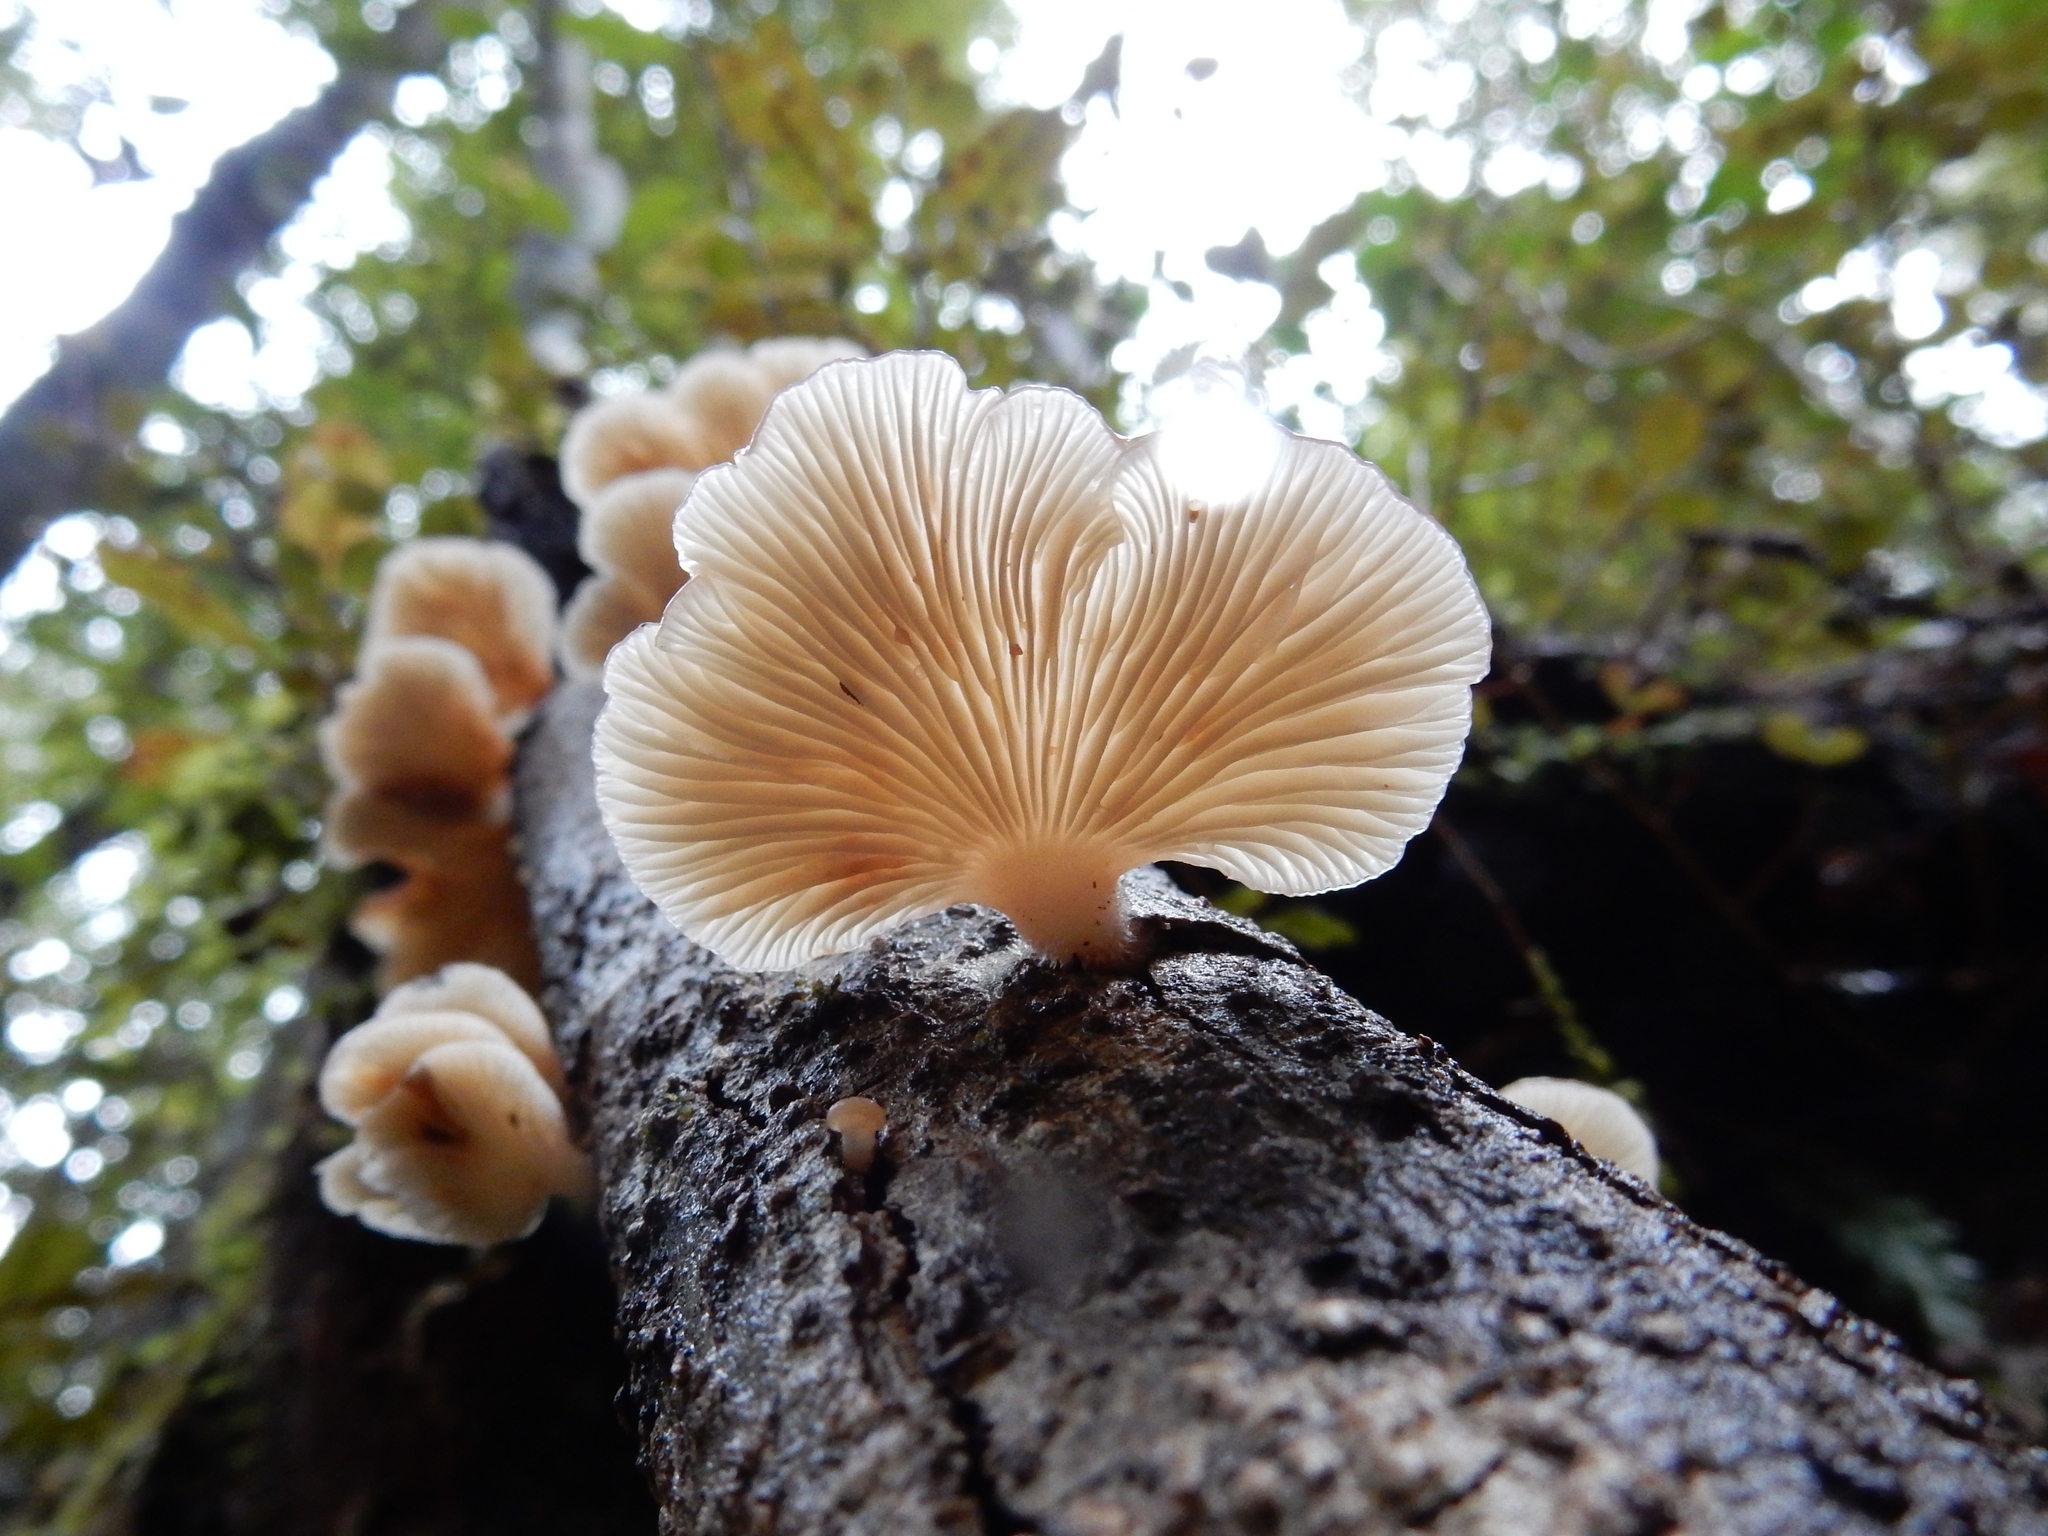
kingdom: Fungi
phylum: Basidiomycota
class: Agaricomycetes
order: Agaricales
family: Mycenaceae
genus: Panellus
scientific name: Panellus longinquus
